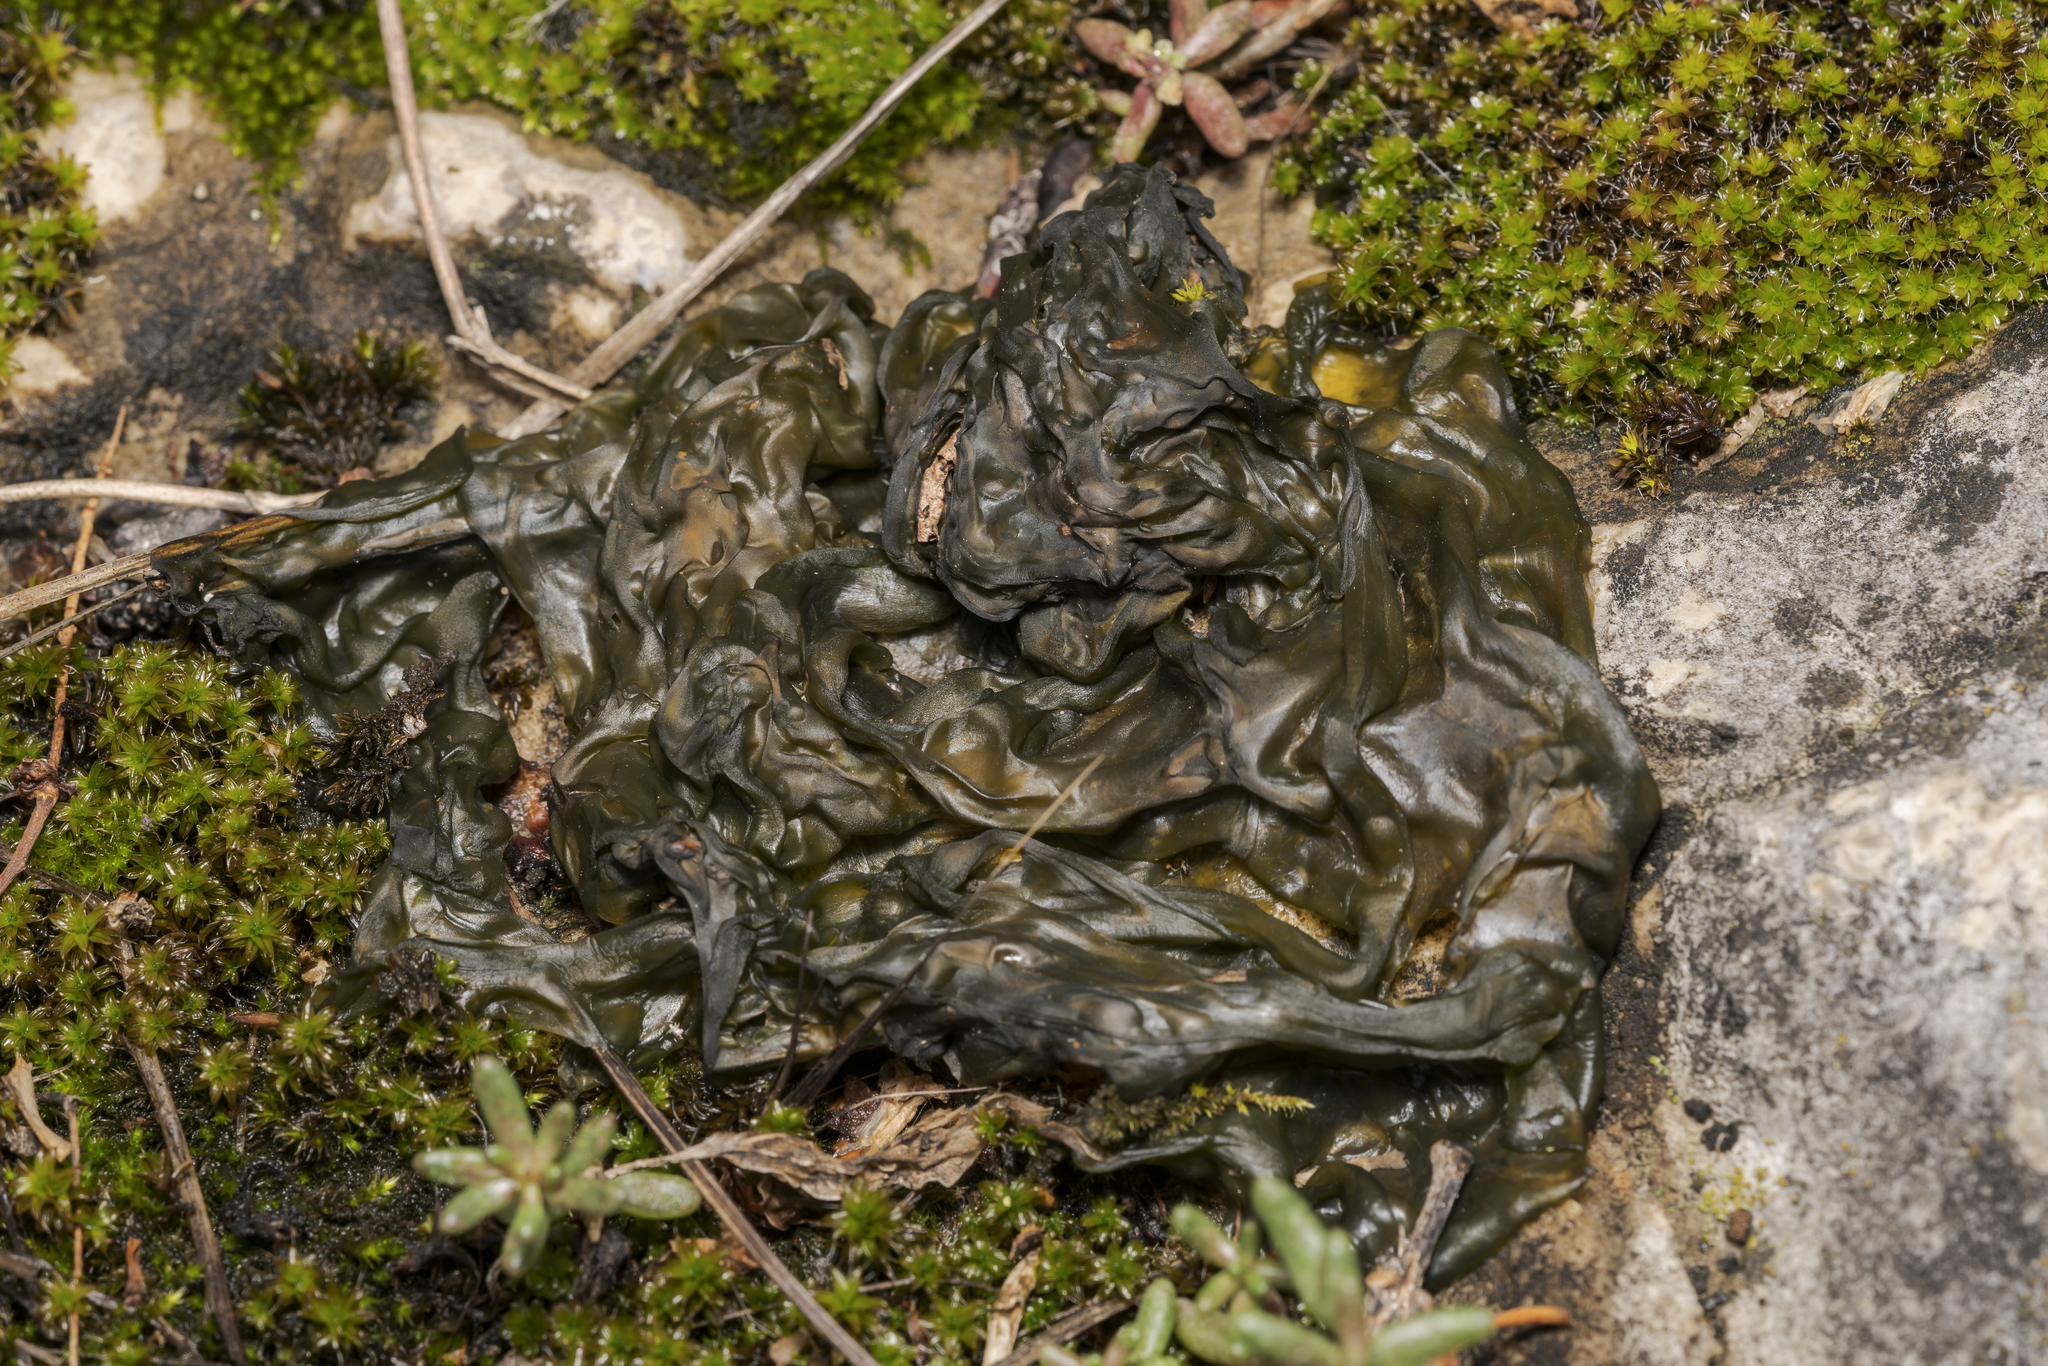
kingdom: Bacteria
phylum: Cyanobacteria
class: Cyanobacteriia
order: Cyanobacteriales
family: Nostocaceae
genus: Nostoc
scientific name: Nostoc commune
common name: Star jelly
